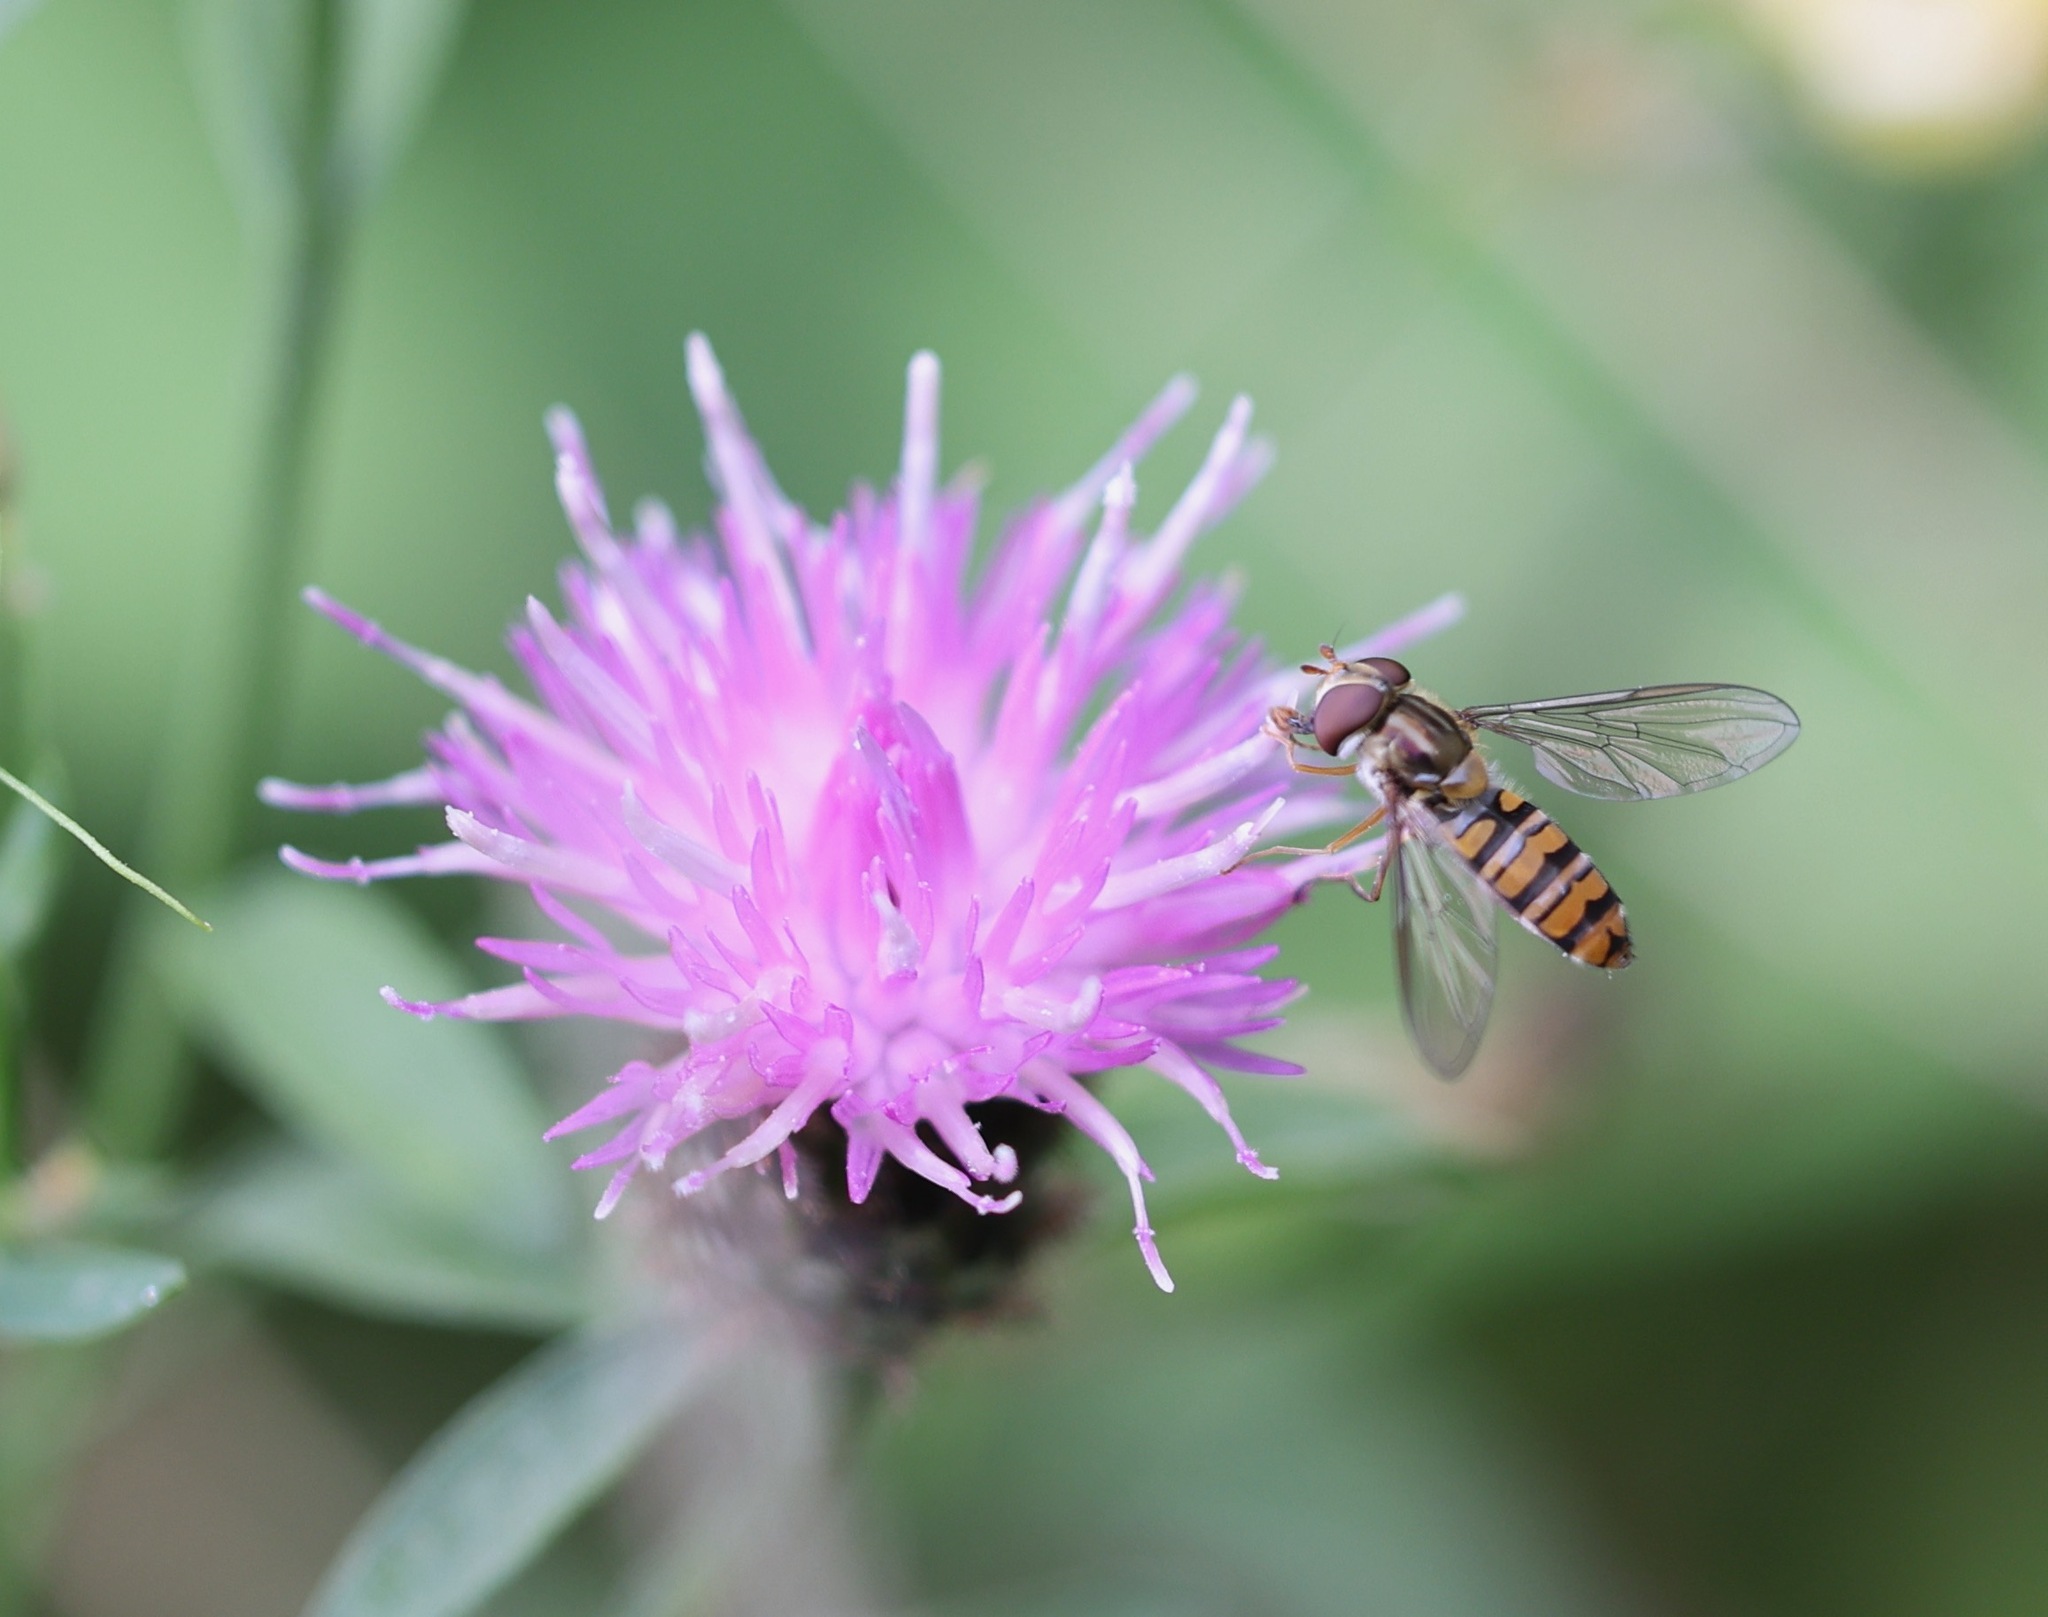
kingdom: Animalia
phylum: Arthropoda
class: Insecta
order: Diptera
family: Syrphidae
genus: Episyrphus
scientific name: Episyrphus balteatus
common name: Marmalade hoverfly
